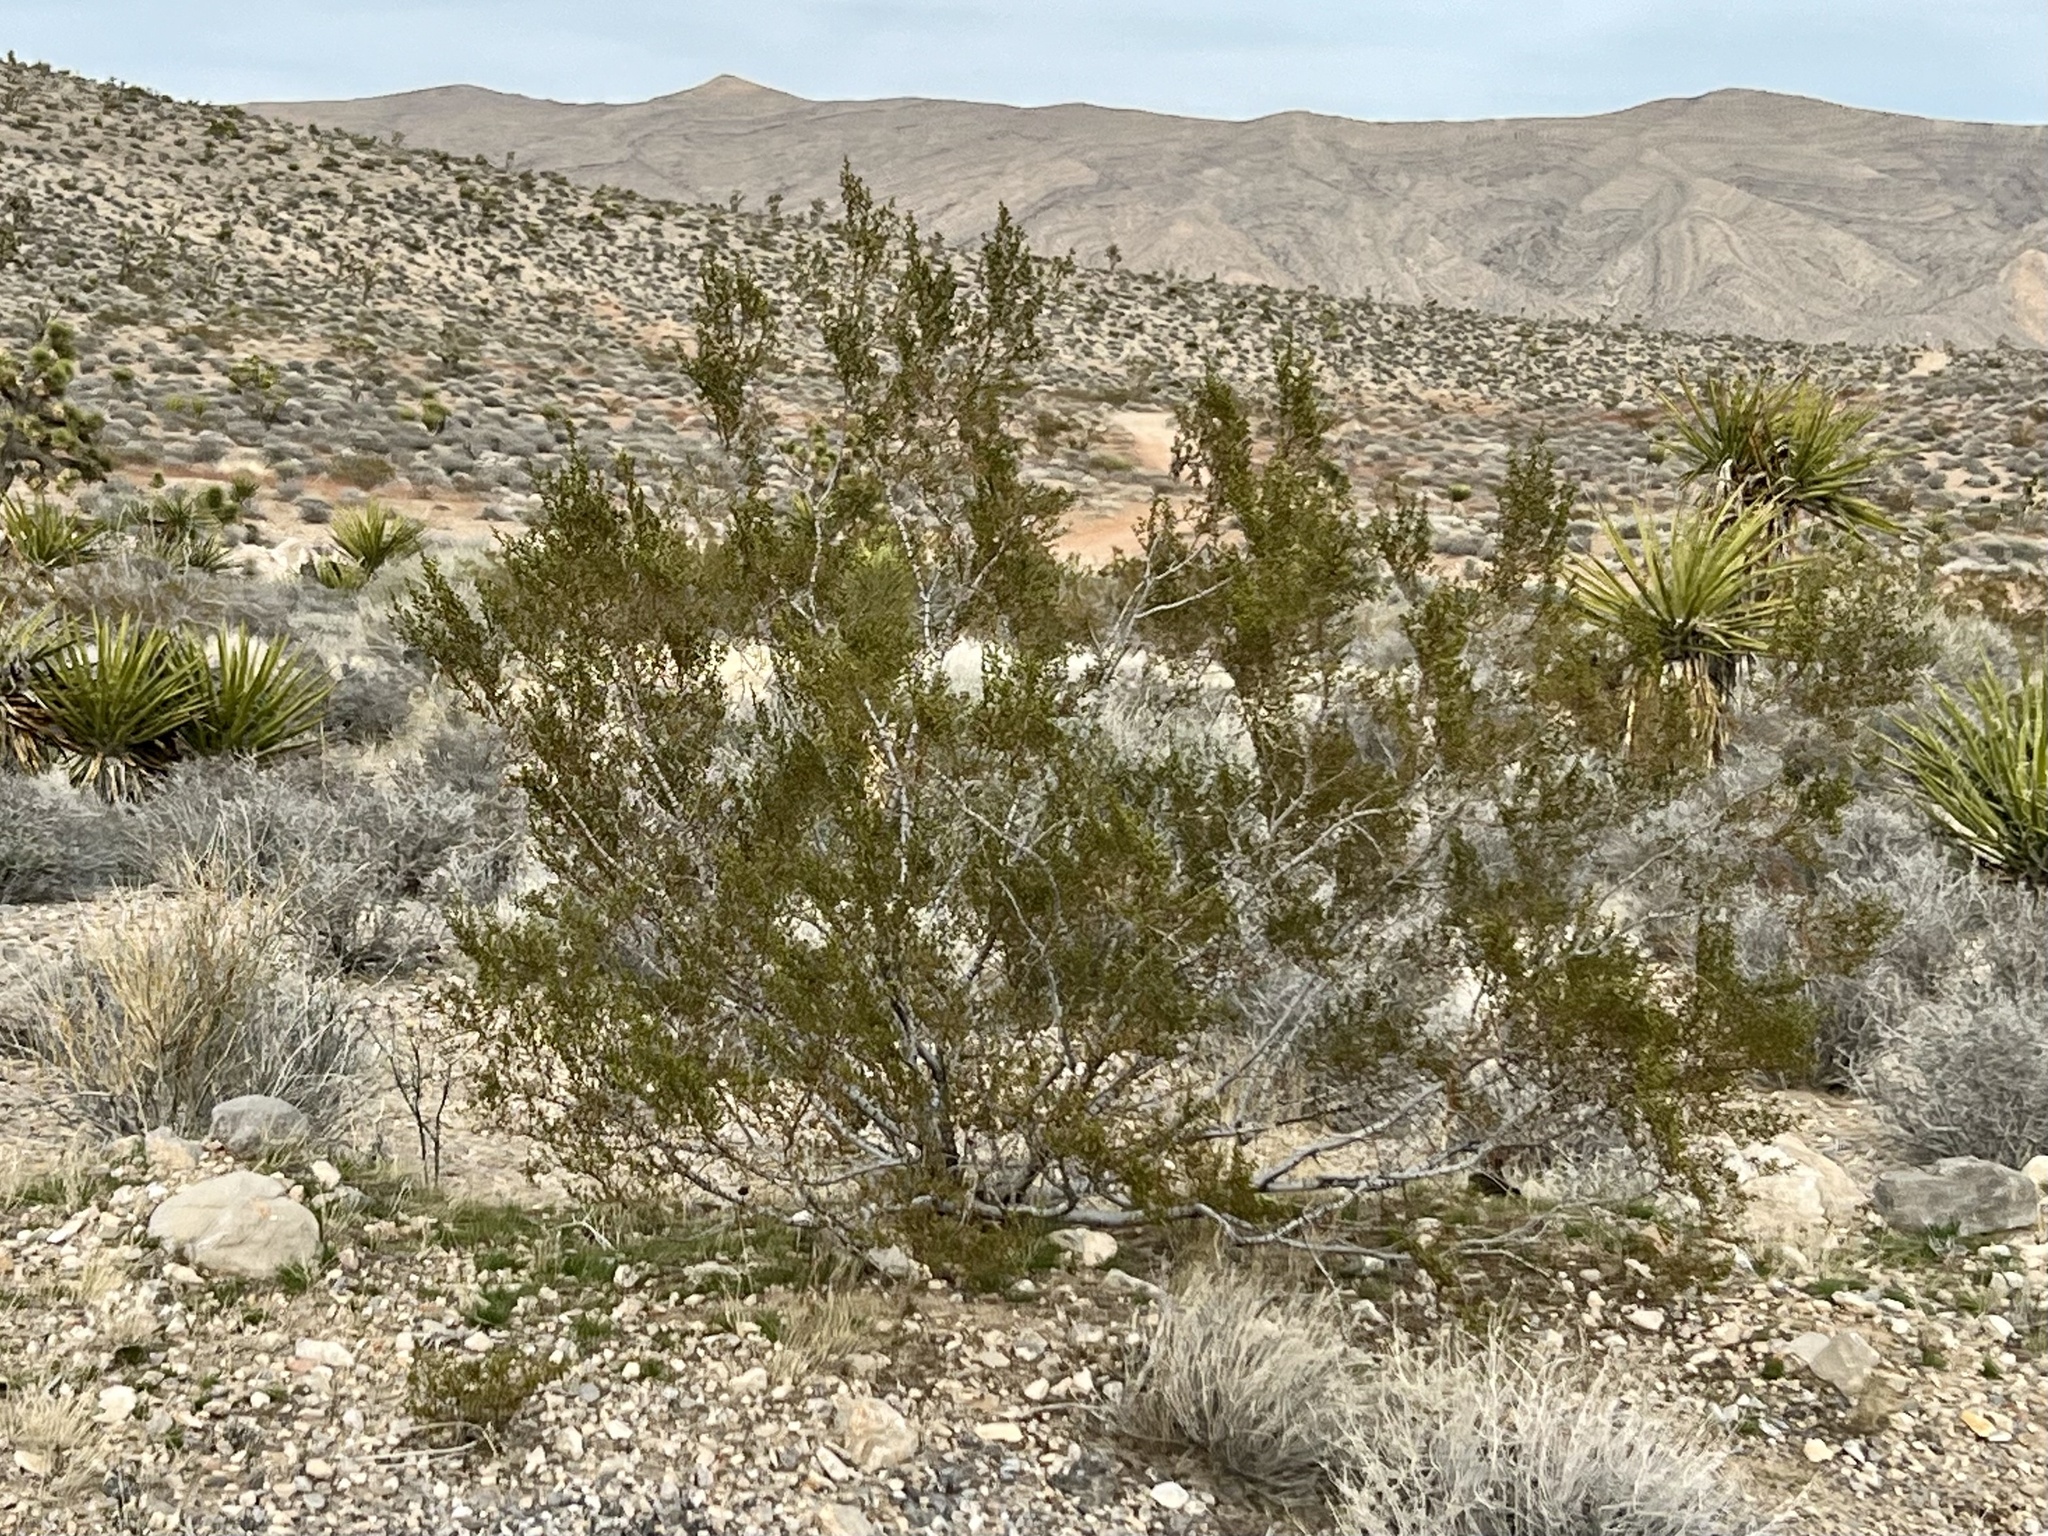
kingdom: Plantae
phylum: Tracheophyta
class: Magnoliopsida
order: Zygophyllales
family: Zygophyllaceae
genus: Larrea
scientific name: Larrea tridentata
